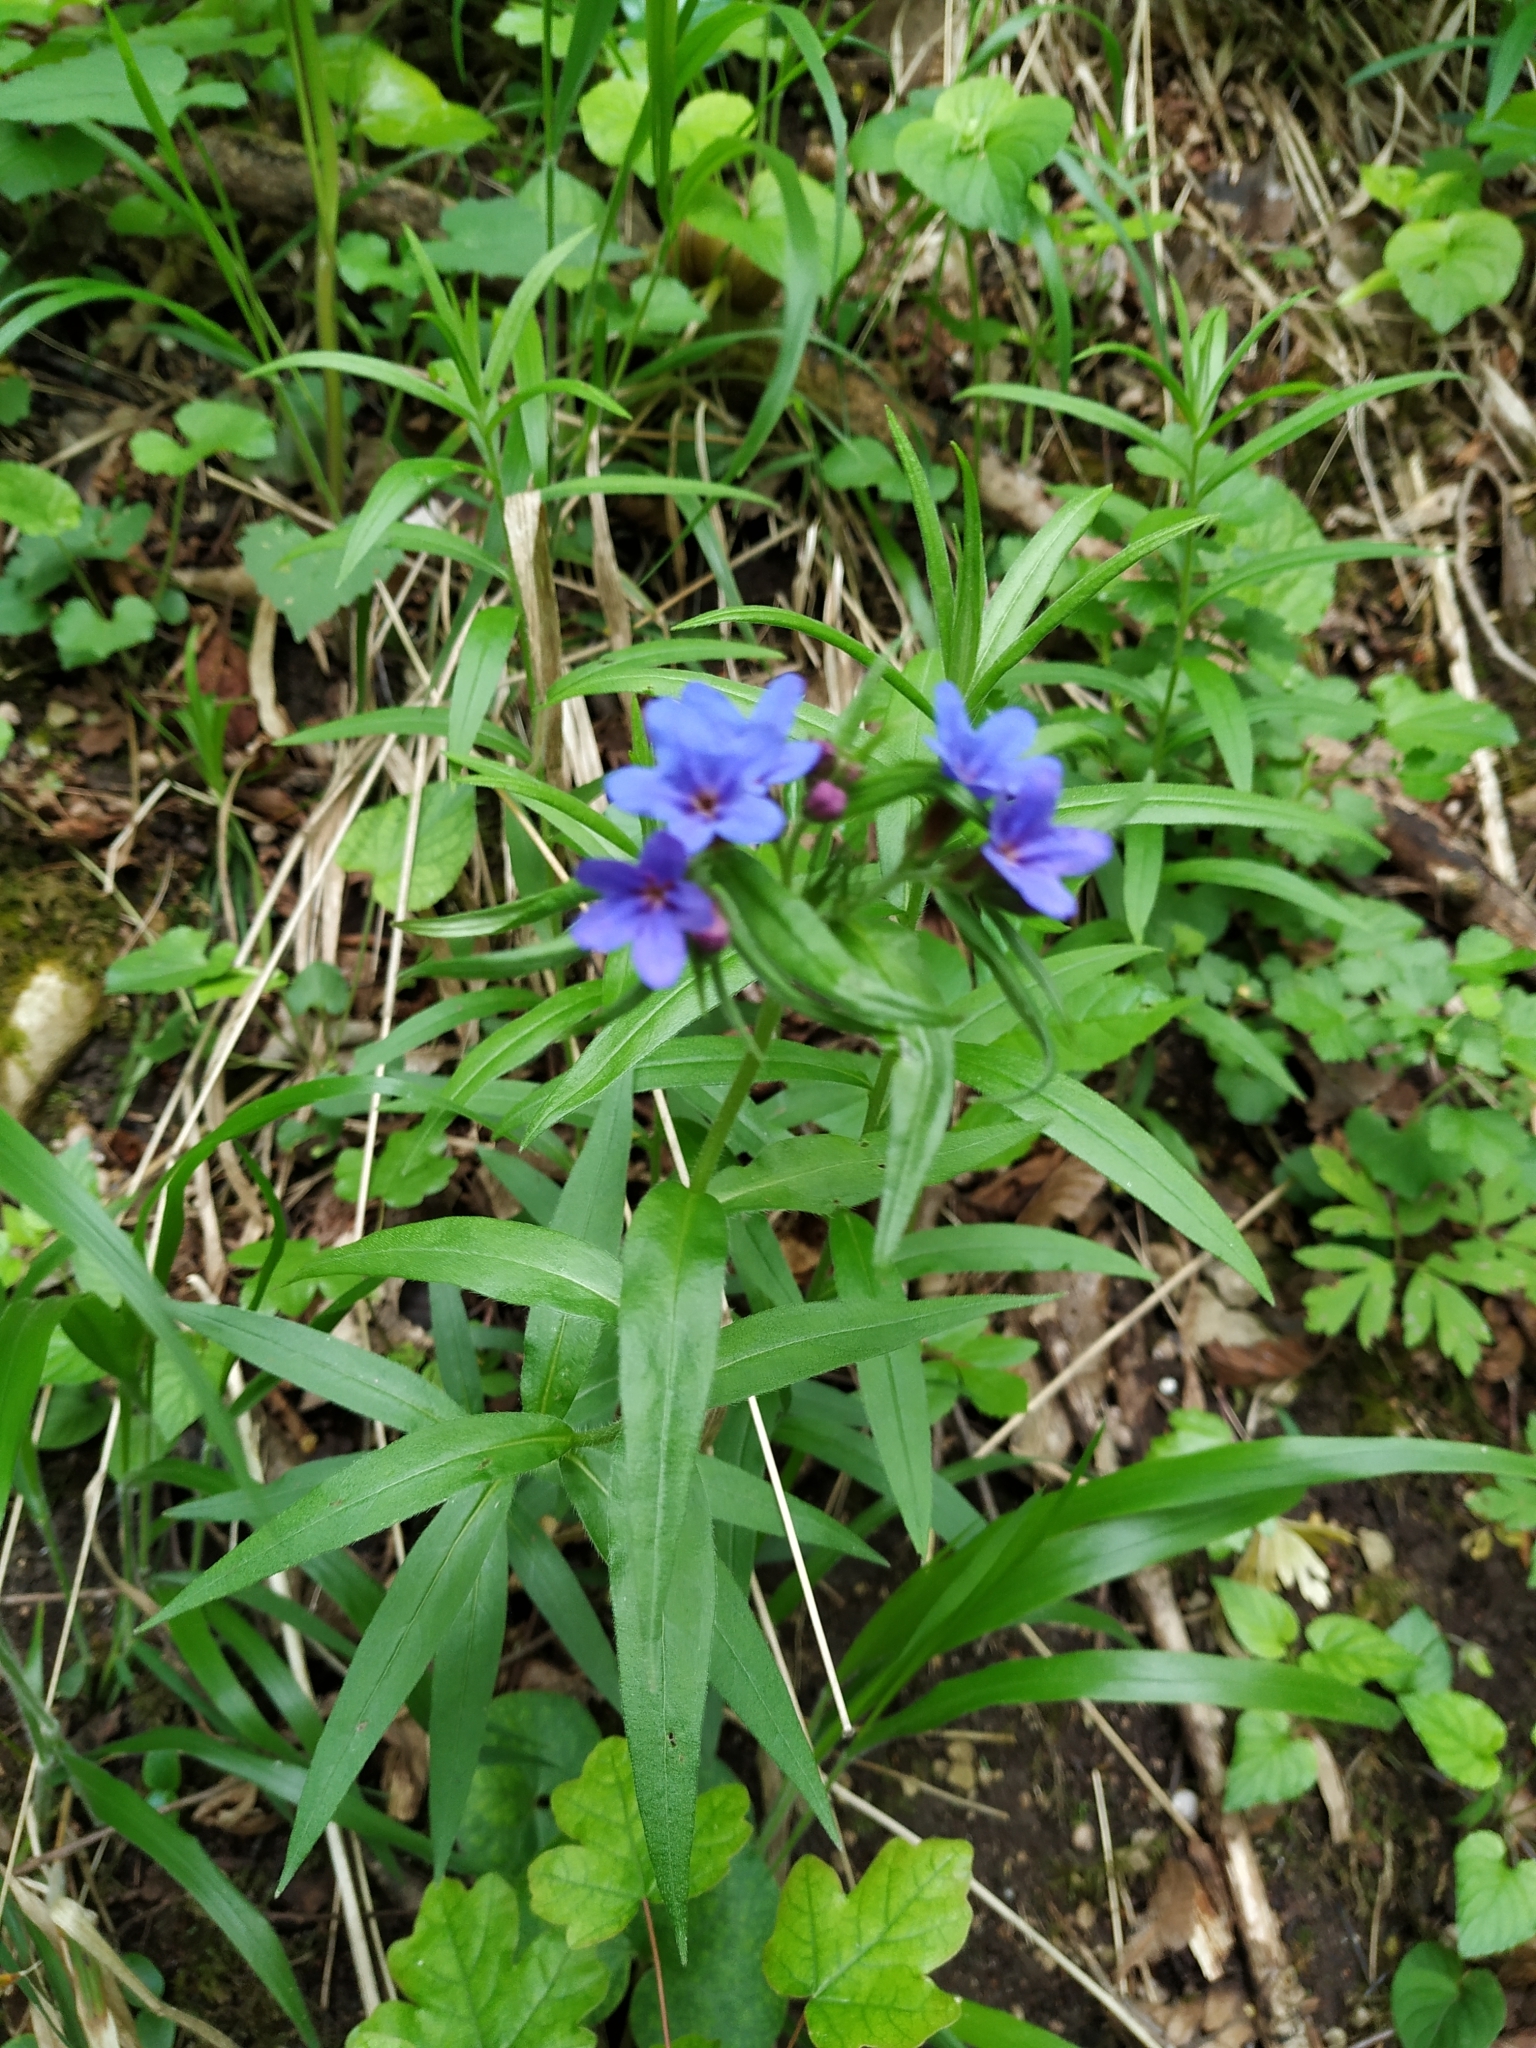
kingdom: Plantae
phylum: Tracheophyta
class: Magnoliopsida
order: Boraginales
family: Boraginaceae
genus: Aegonychon
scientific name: Aegonychon purpurocaeruleum
